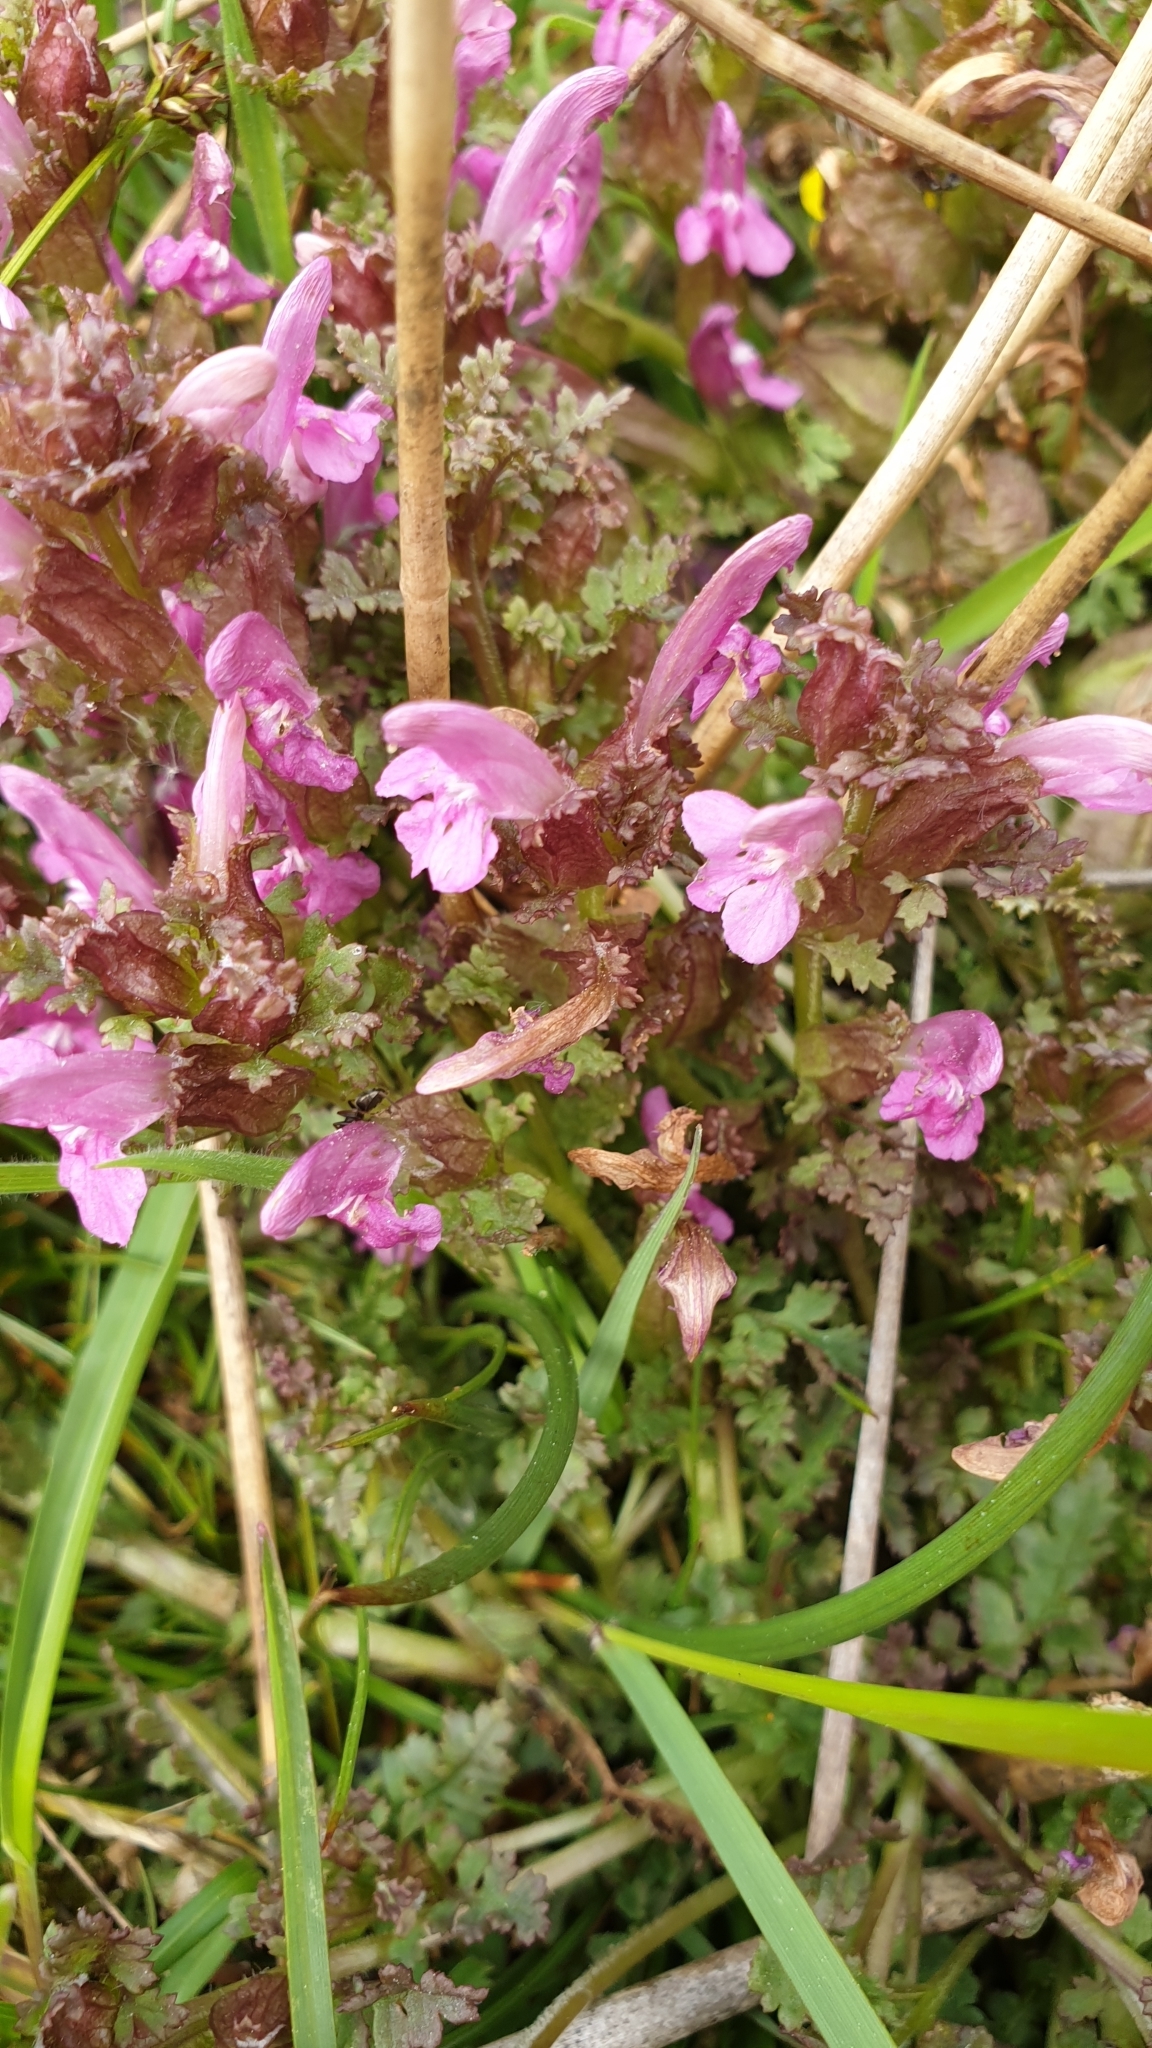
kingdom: Plantae
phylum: Tracheophyta
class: Magnoliopsida
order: Lamiales
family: Orobanchaceae
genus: Pedicularis
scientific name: Pedicularis sylvatica
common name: Lousewort
